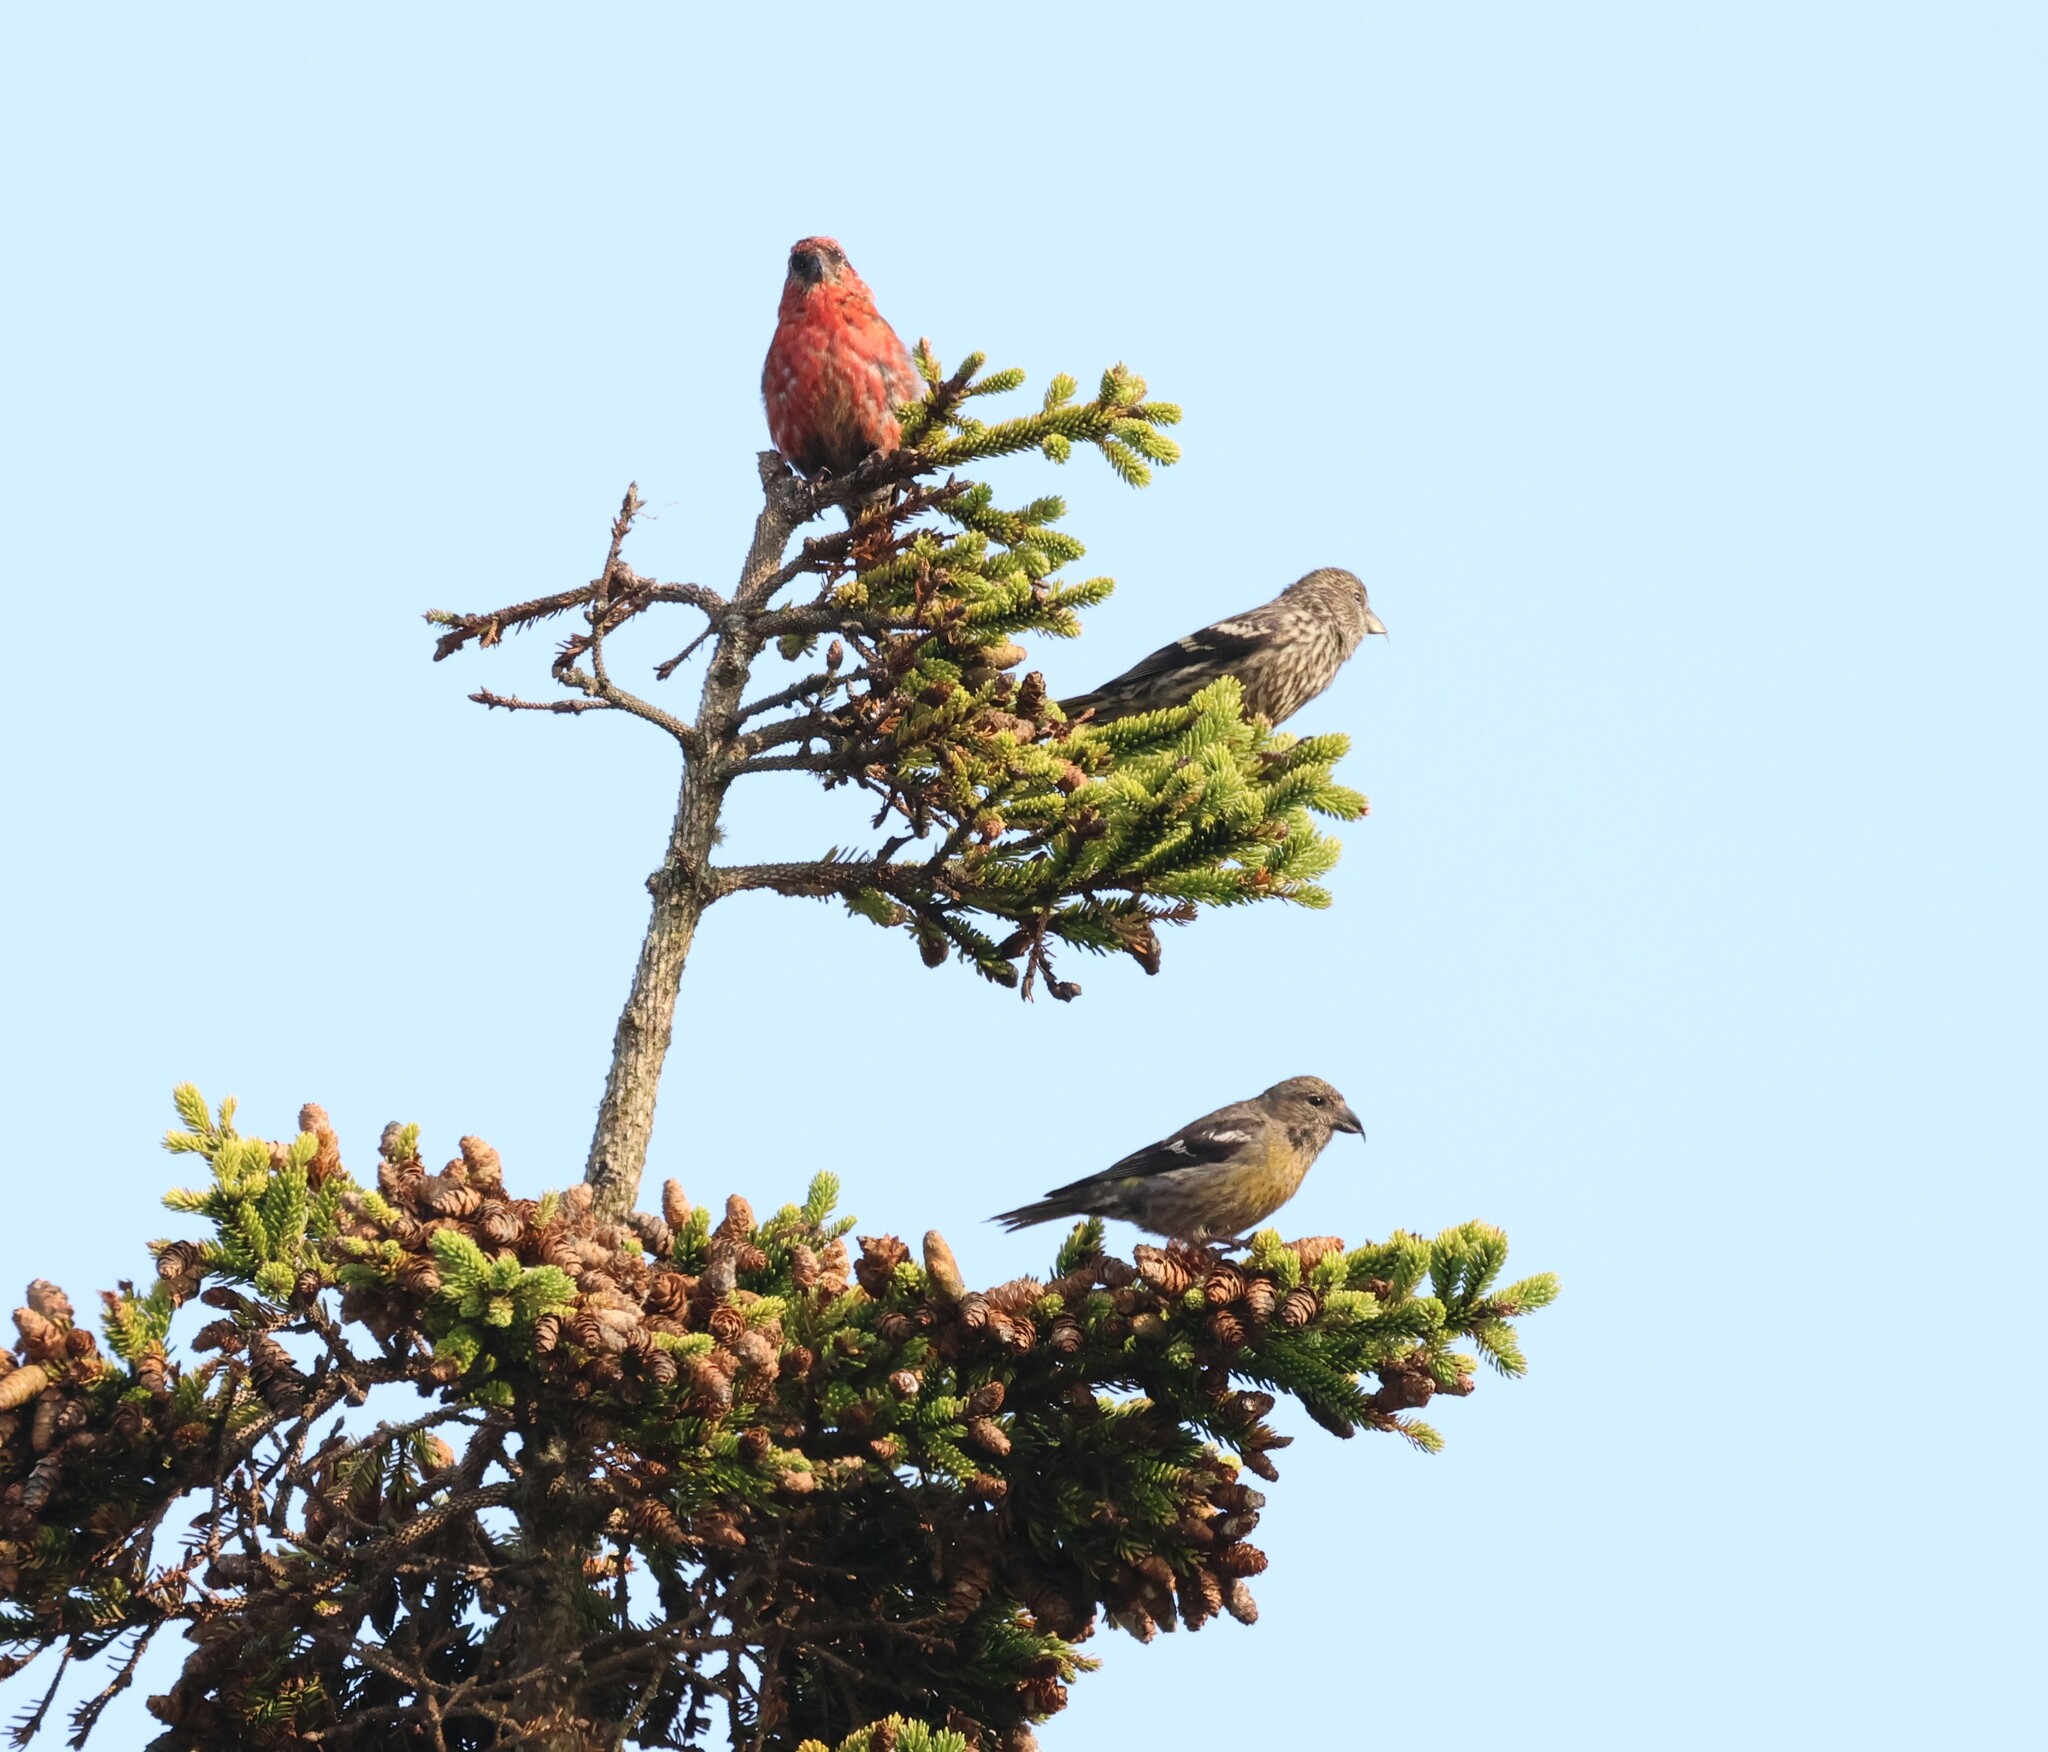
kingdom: Animalia
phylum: Chordata
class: Aves
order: Passeriformes
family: Fringillidae
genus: Loxia
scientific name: Loxia leucoptera
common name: Two-barred crossbill
